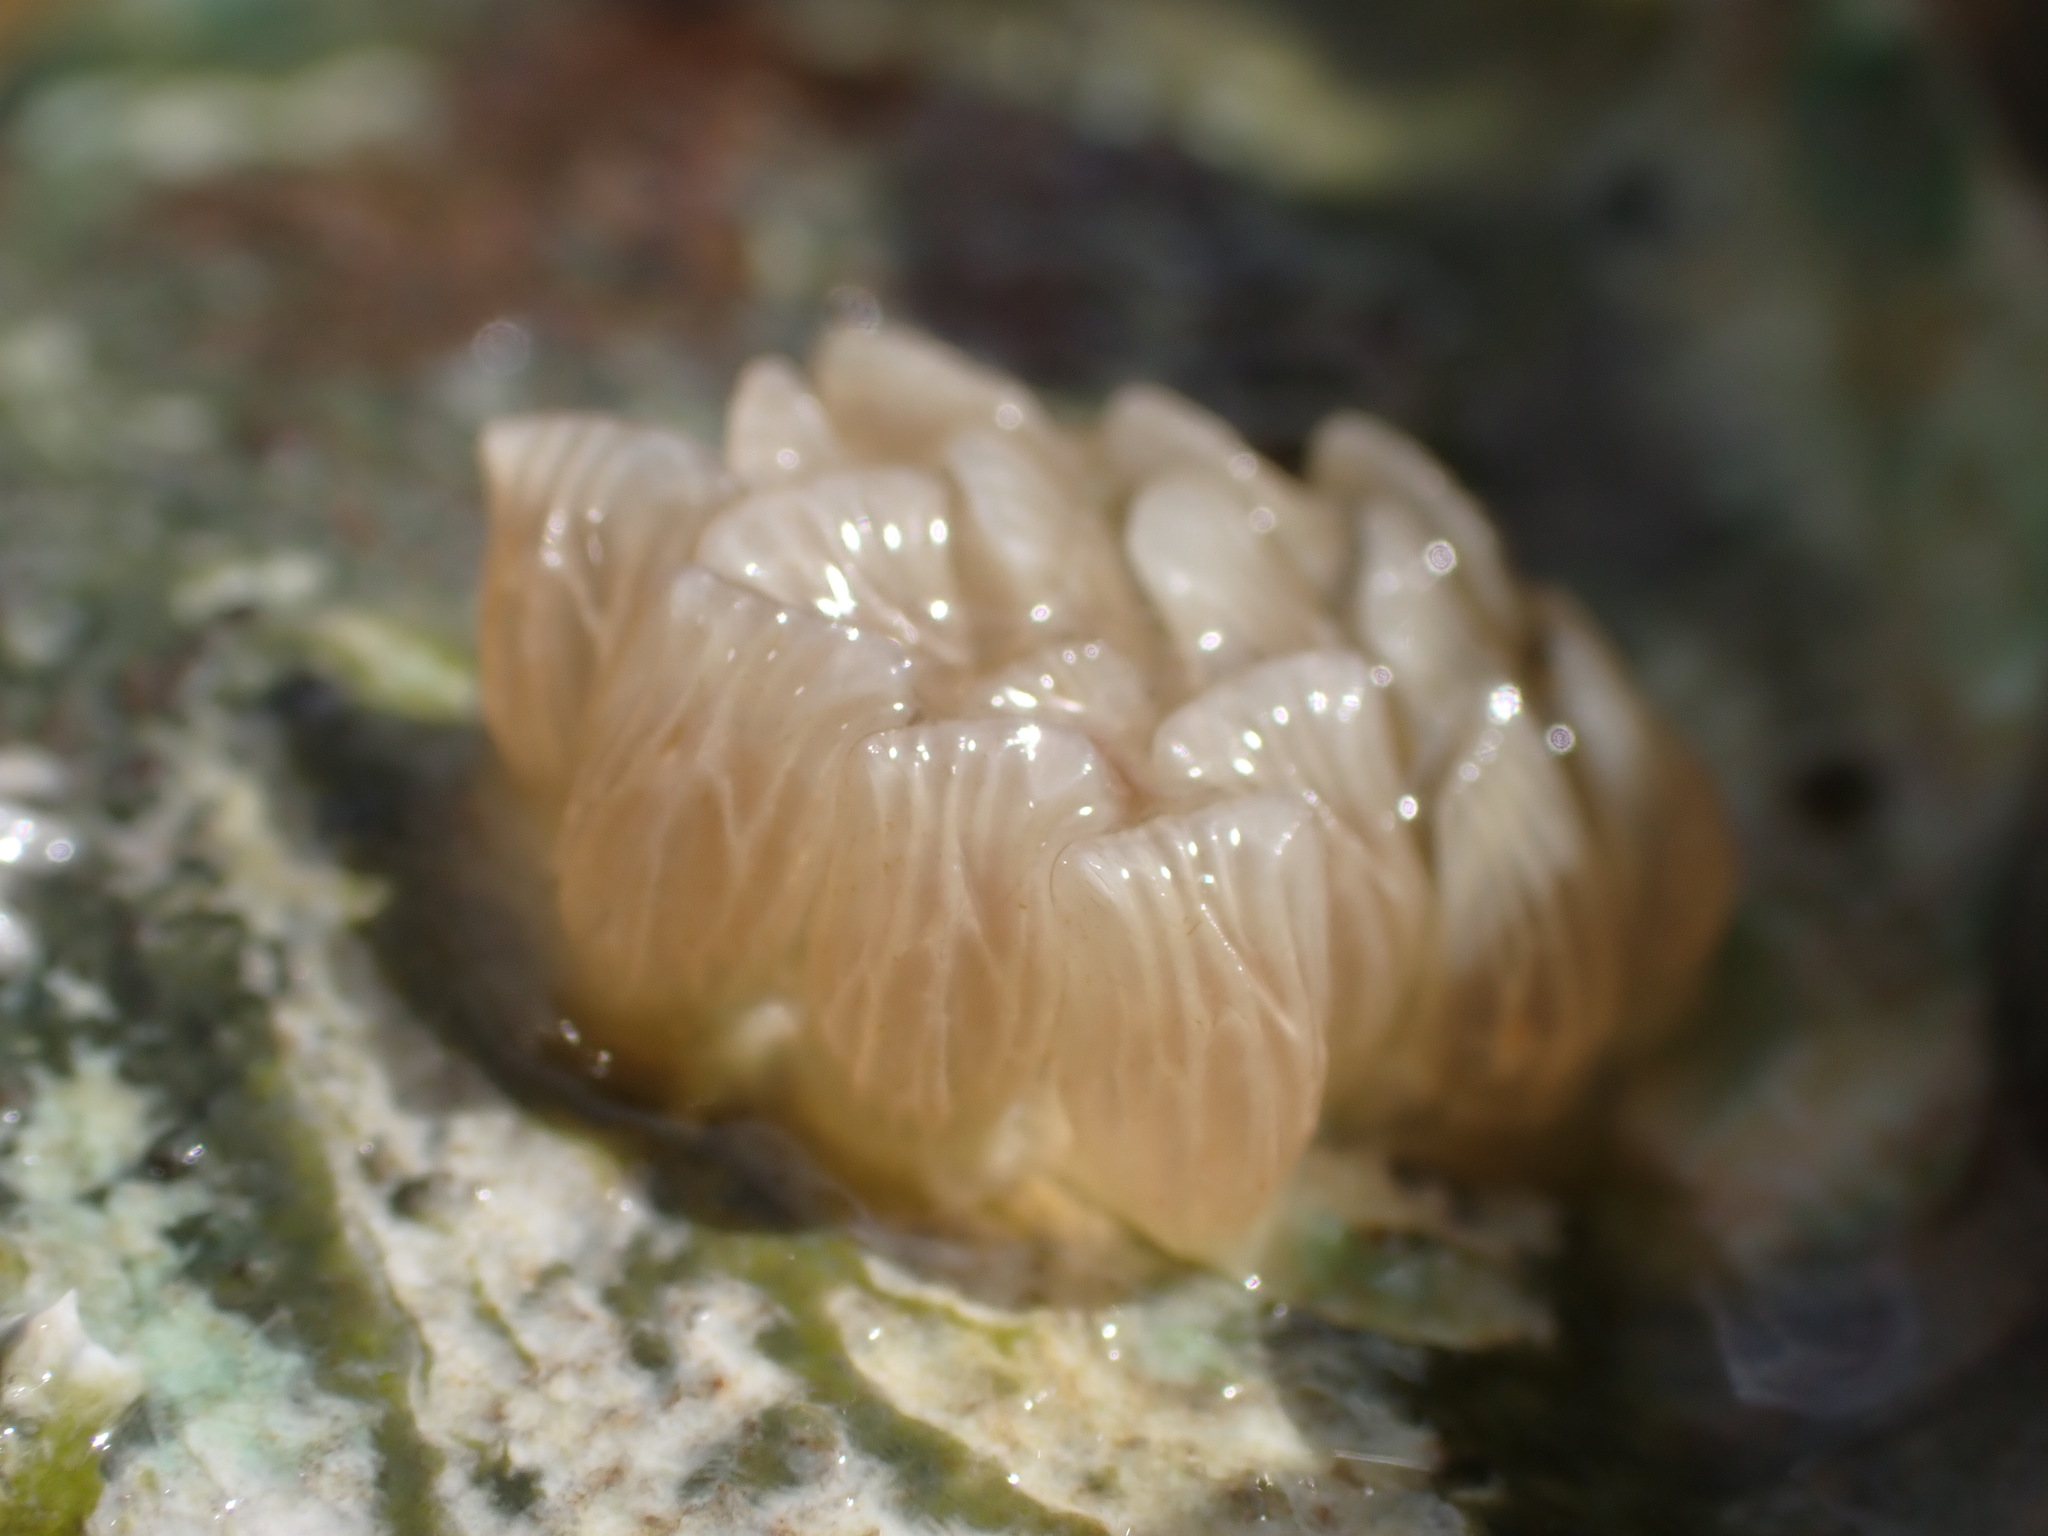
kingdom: Animalia
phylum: Mollusca
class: Gastropoda
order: Neogastropoda
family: Cominellidae
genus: Cominella
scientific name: Cominella virgata
